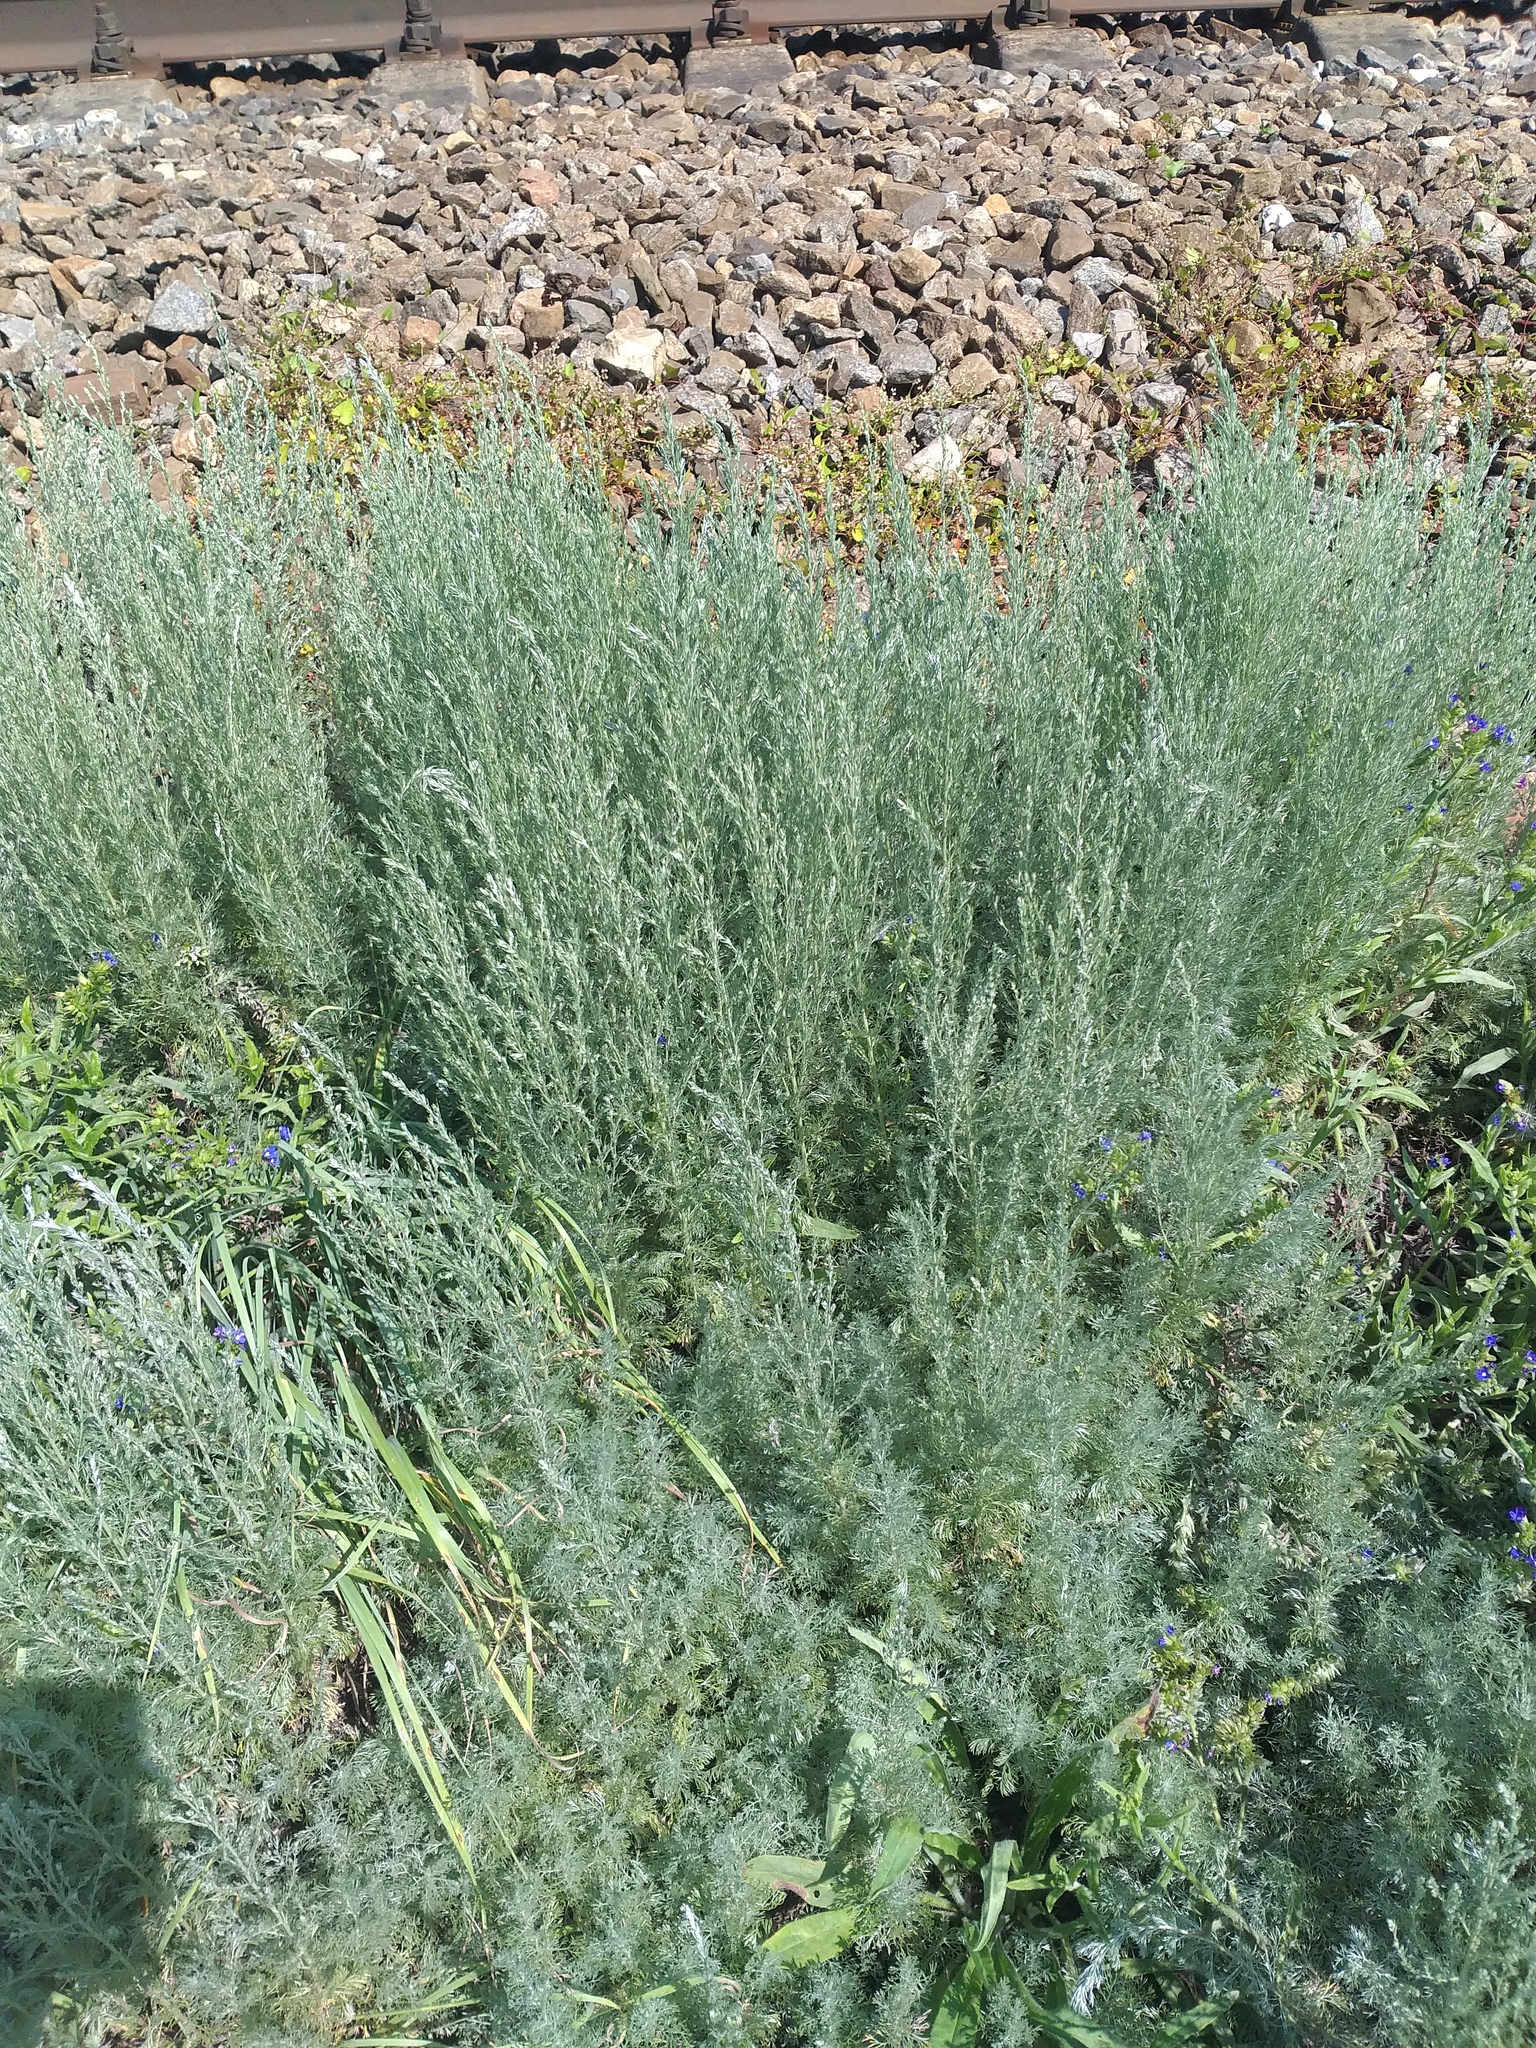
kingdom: Plantae
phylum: Tracheophyta
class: Magnoliopsida
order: Asterales
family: Asteraceae
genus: Artemisia
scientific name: Artemisia austriaca
